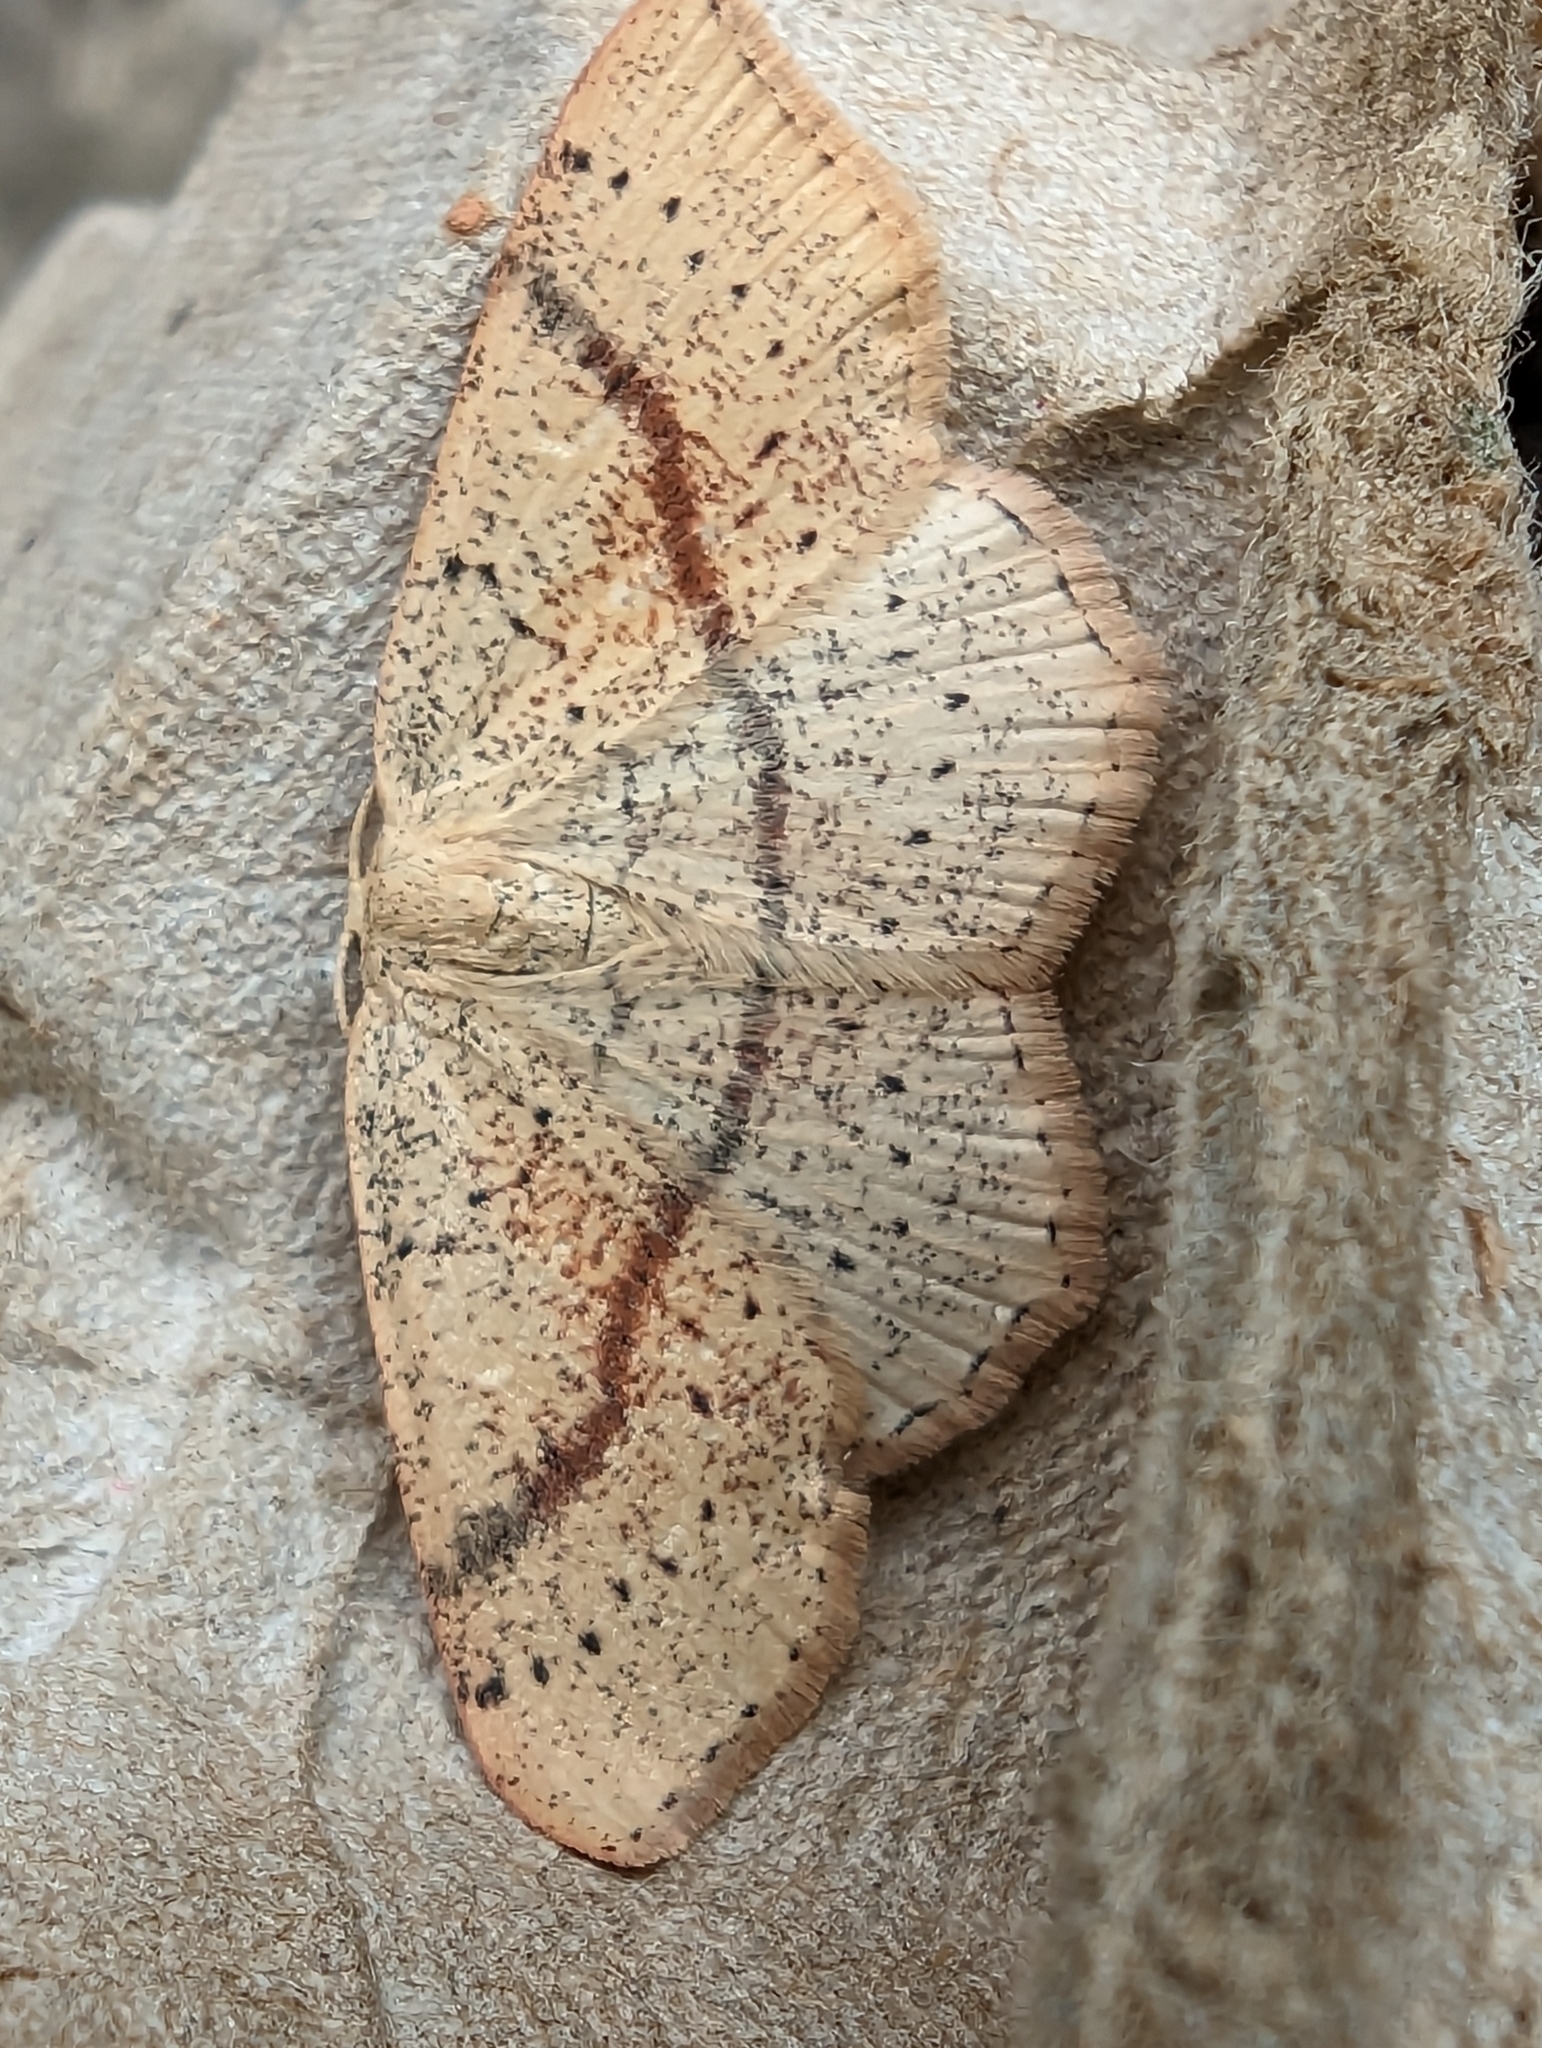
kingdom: Animalia
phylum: Arthropoda
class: Insecta
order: Lepidoptera
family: Geometridae
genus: Cyclophora
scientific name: Cyclophora punctaria
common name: Maiden's blush
